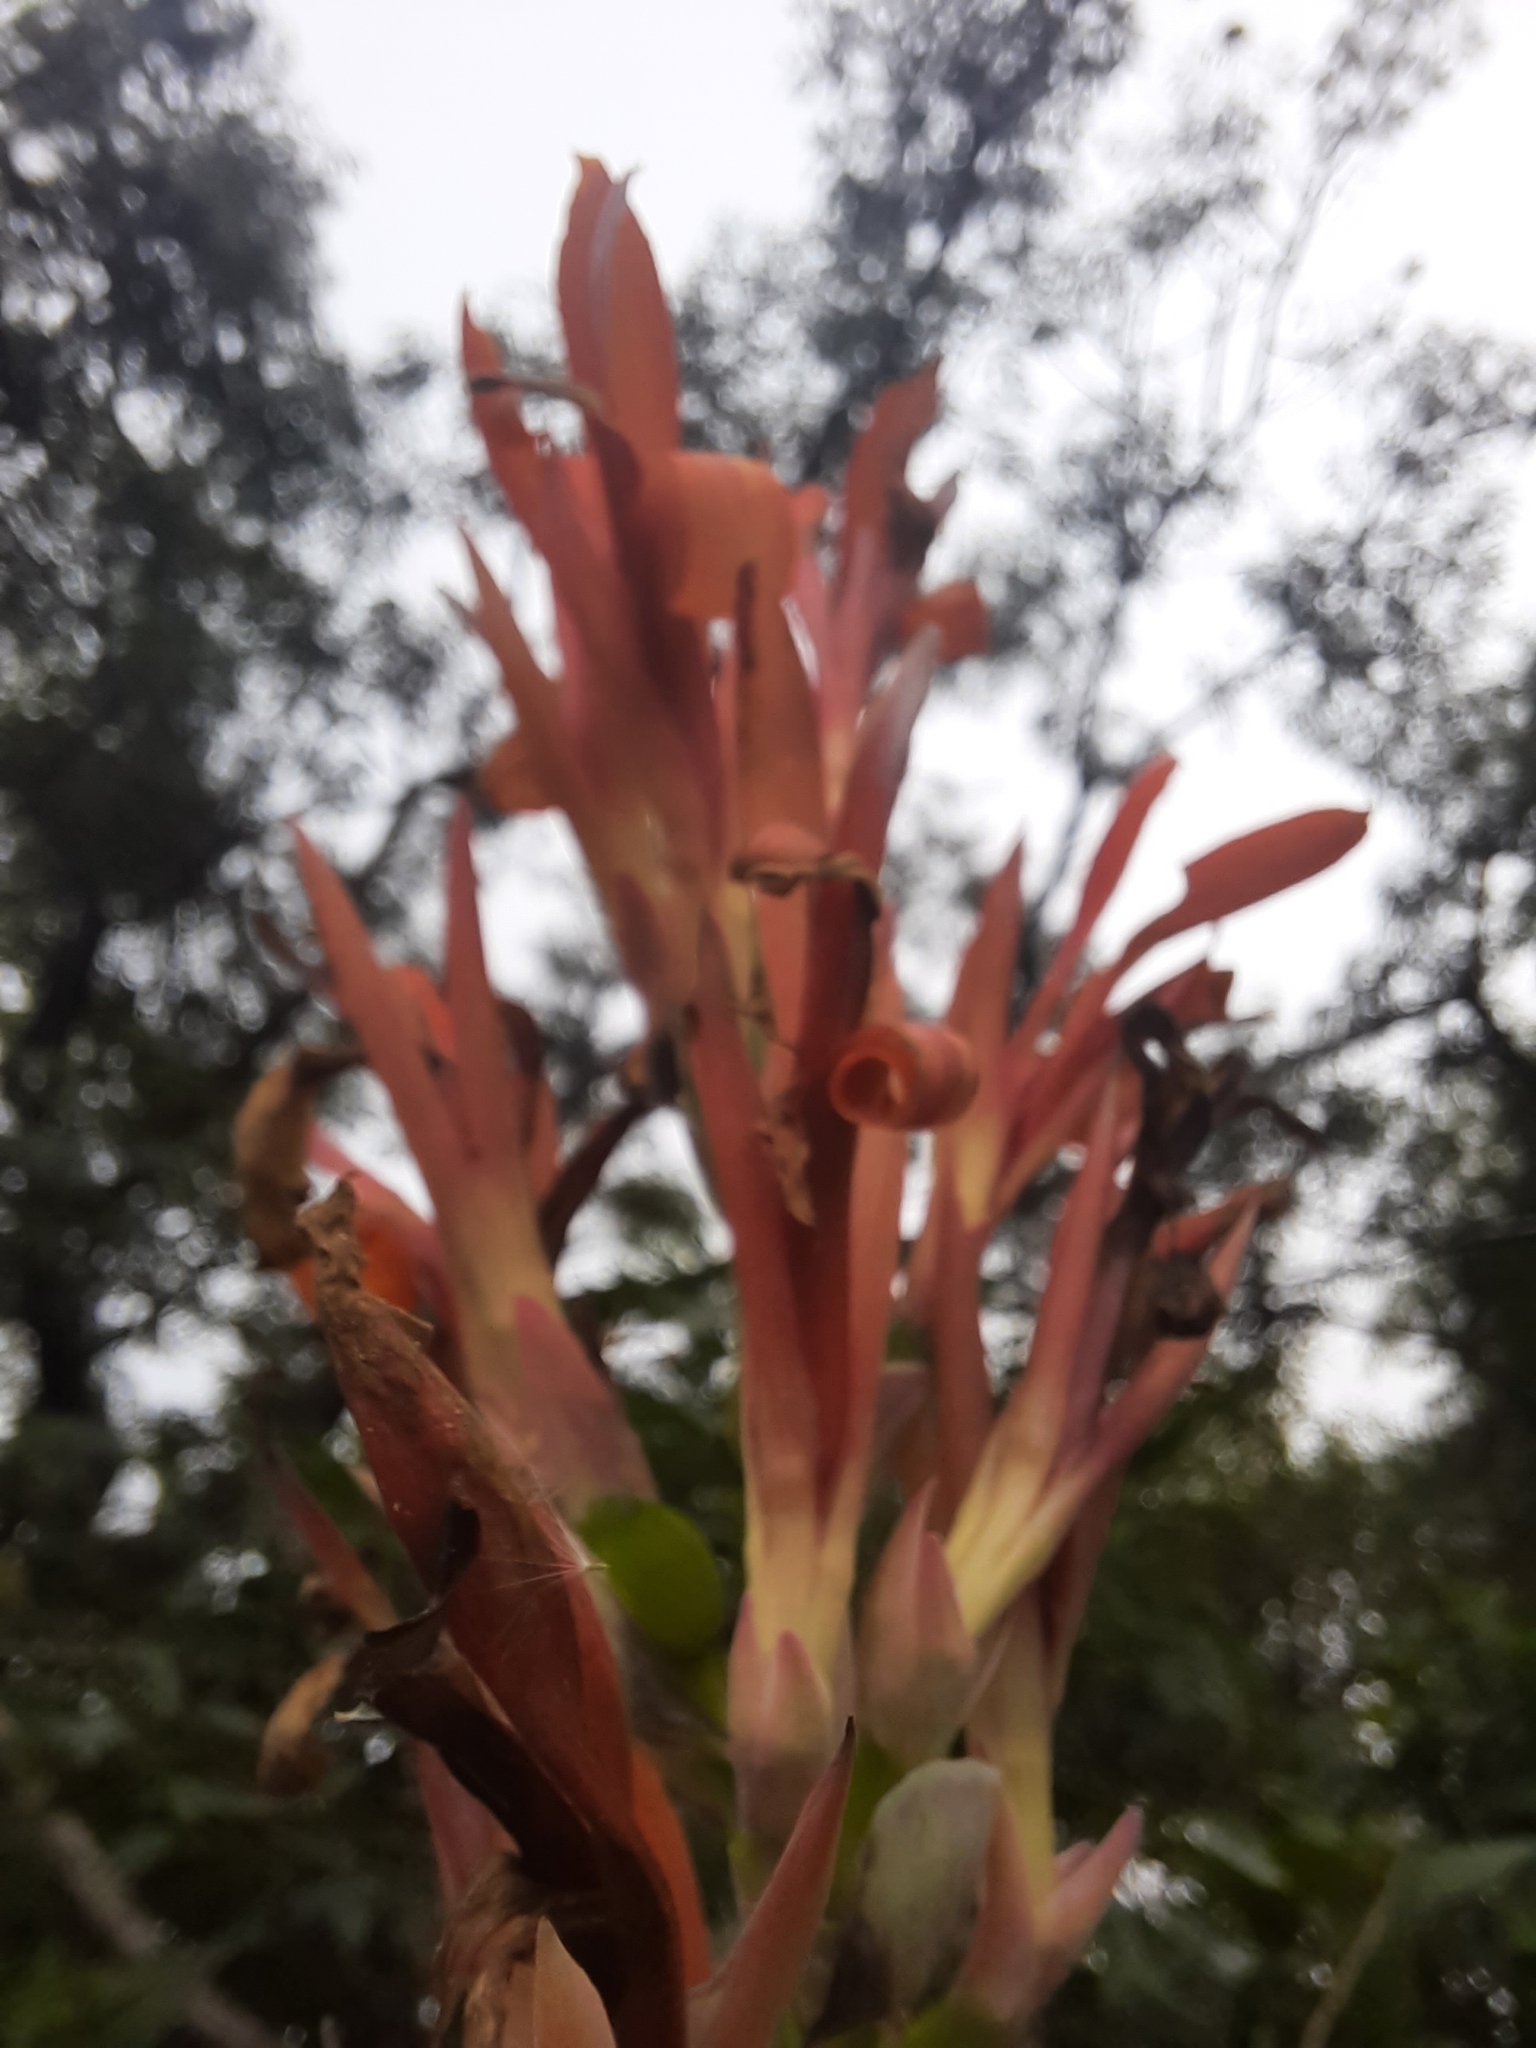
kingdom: Plantae
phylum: Tracheophyta
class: Liliopsida
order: Zingiberales
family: Cannaceae
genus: Canna
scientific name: Canna indica
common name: Indian shot
